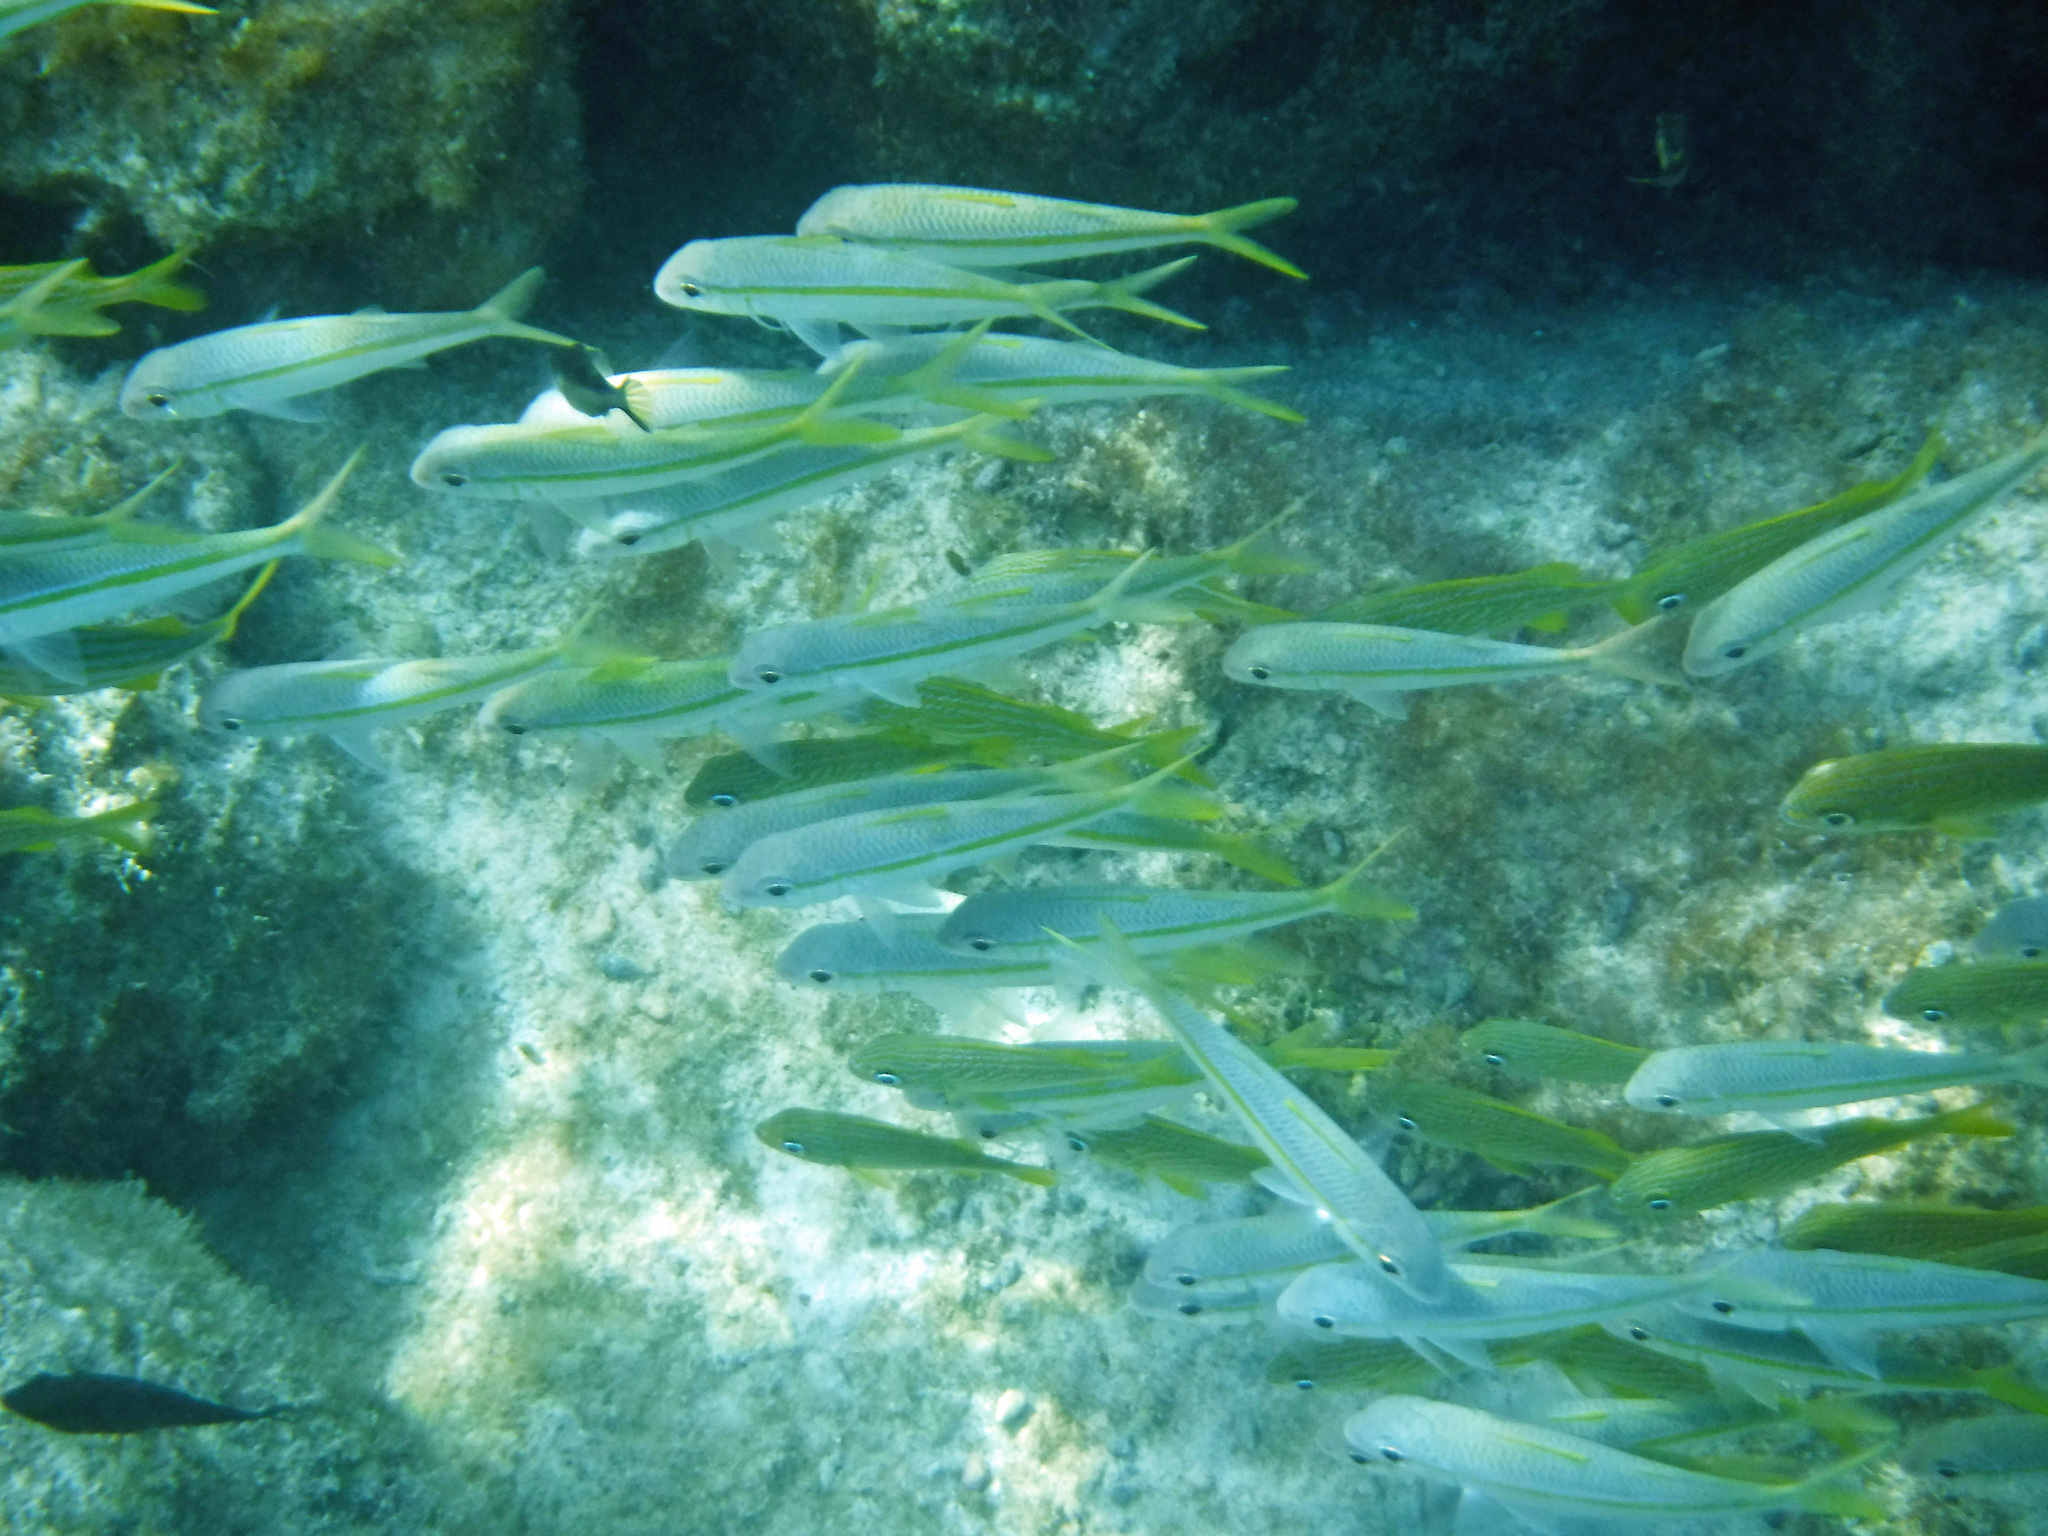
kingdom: Animalia
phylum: Chordata
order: Perciformes
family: Mullidae
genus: Mulloidichthys
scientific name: Mulloidichthys martinicus
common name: Yellow goatfish
